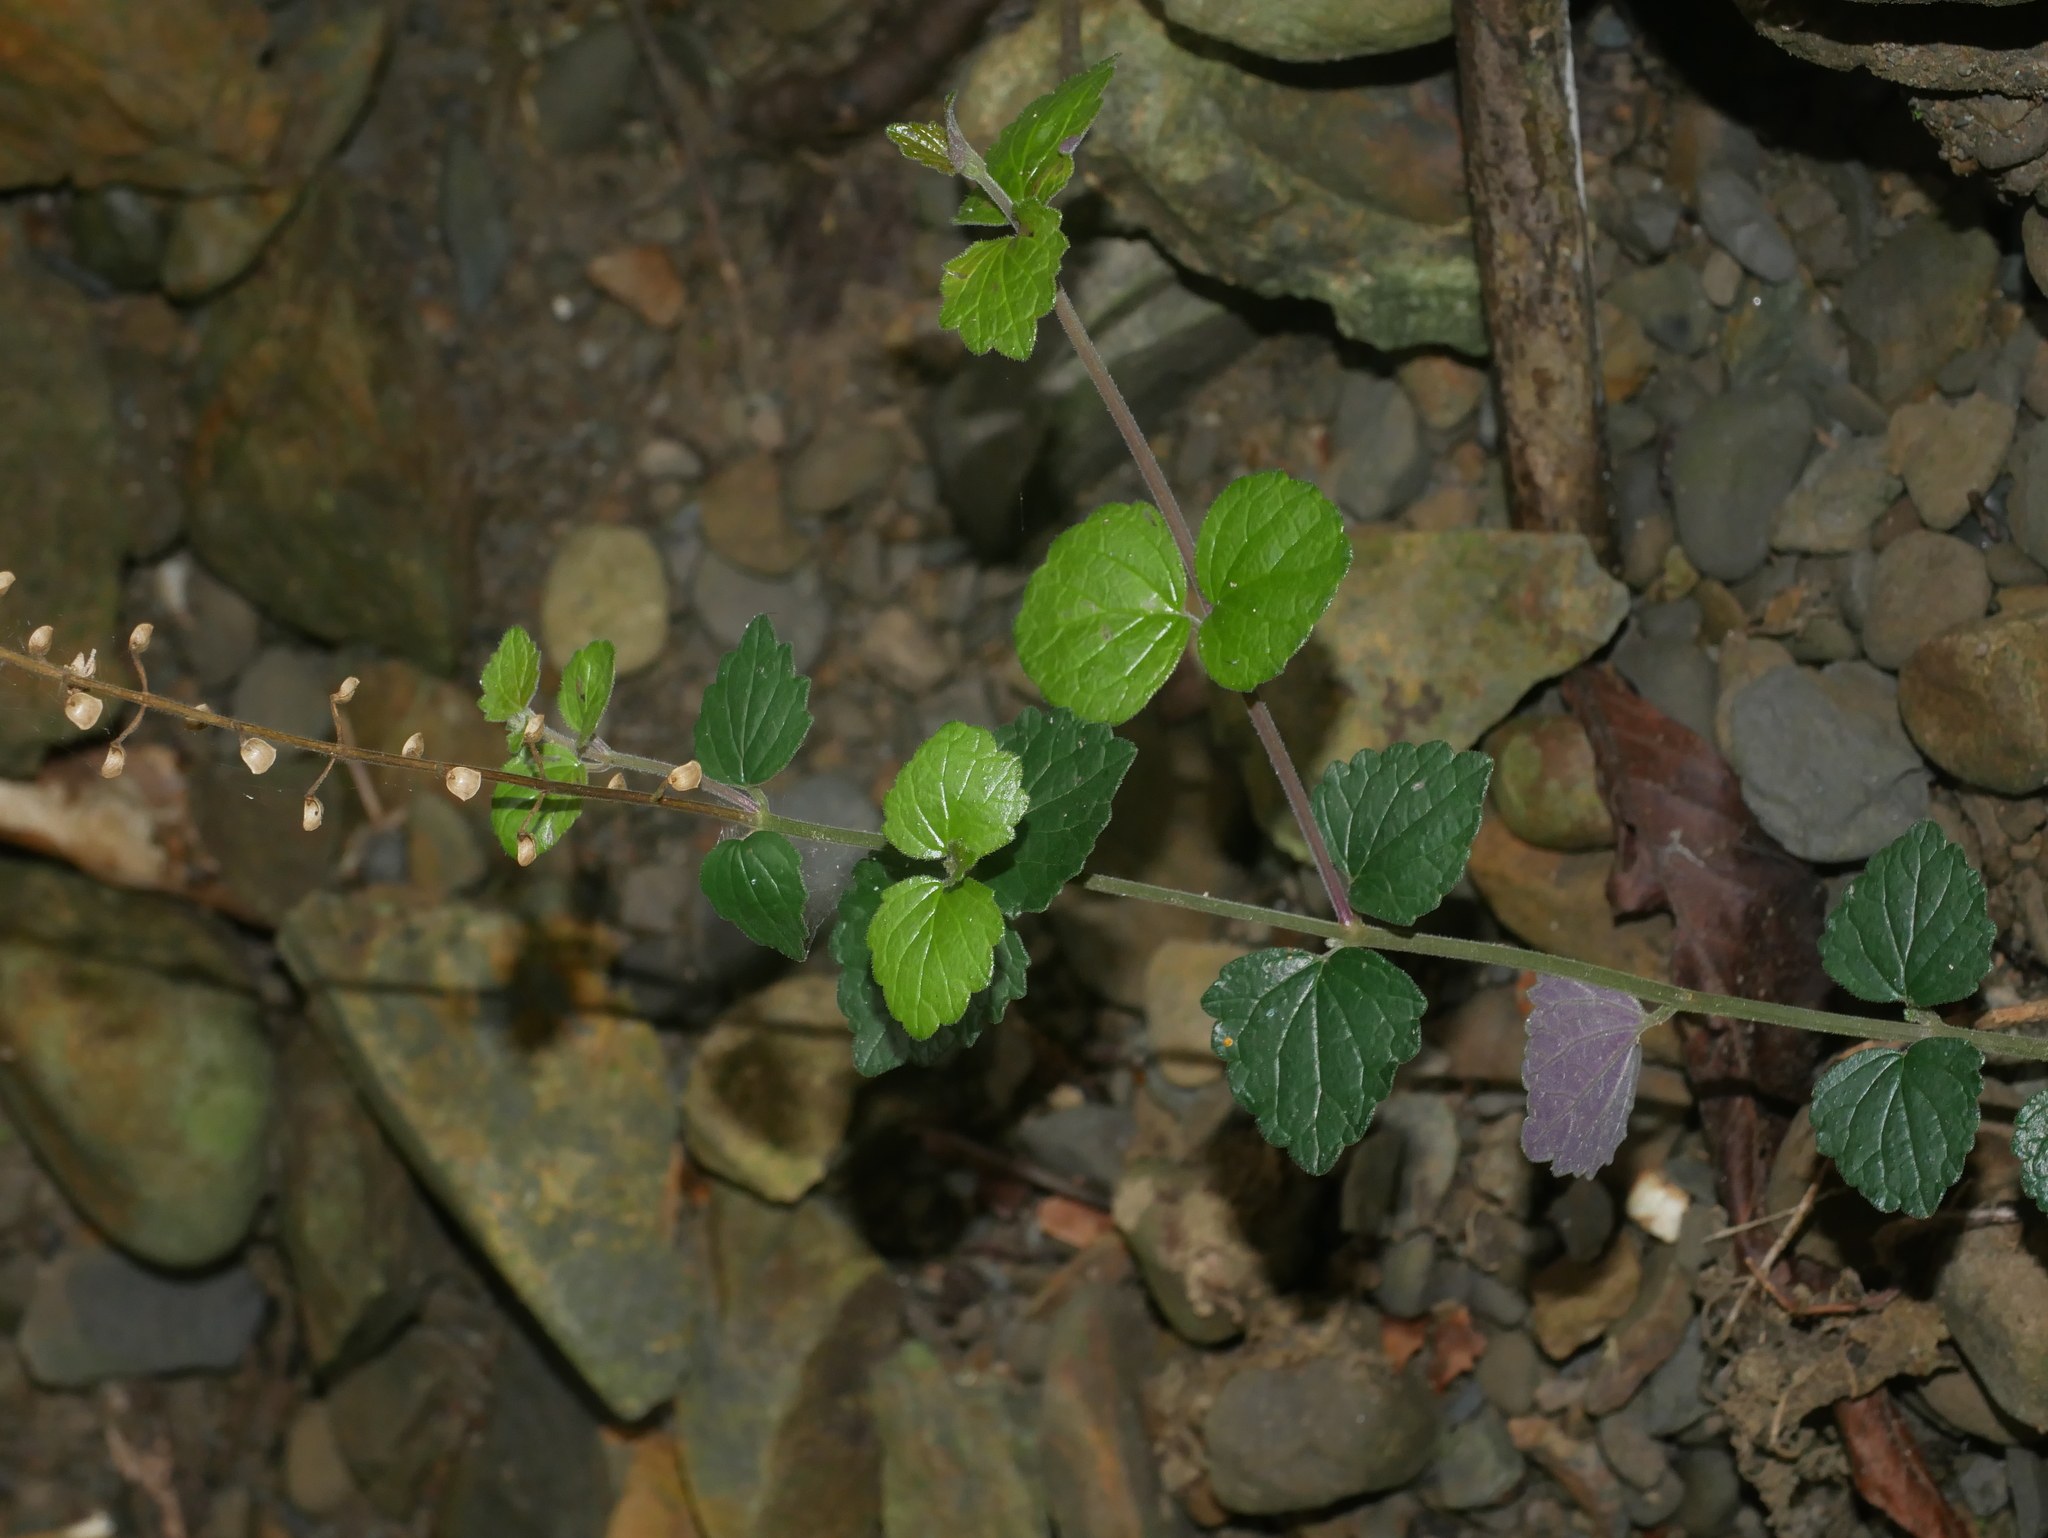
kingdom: Plantae
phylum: Tracheophyta
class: Magnoliopsida
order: Lamiales
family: Lamiaceae
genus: Scutellaria
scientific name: Scutellaria austrotaiwanensis
